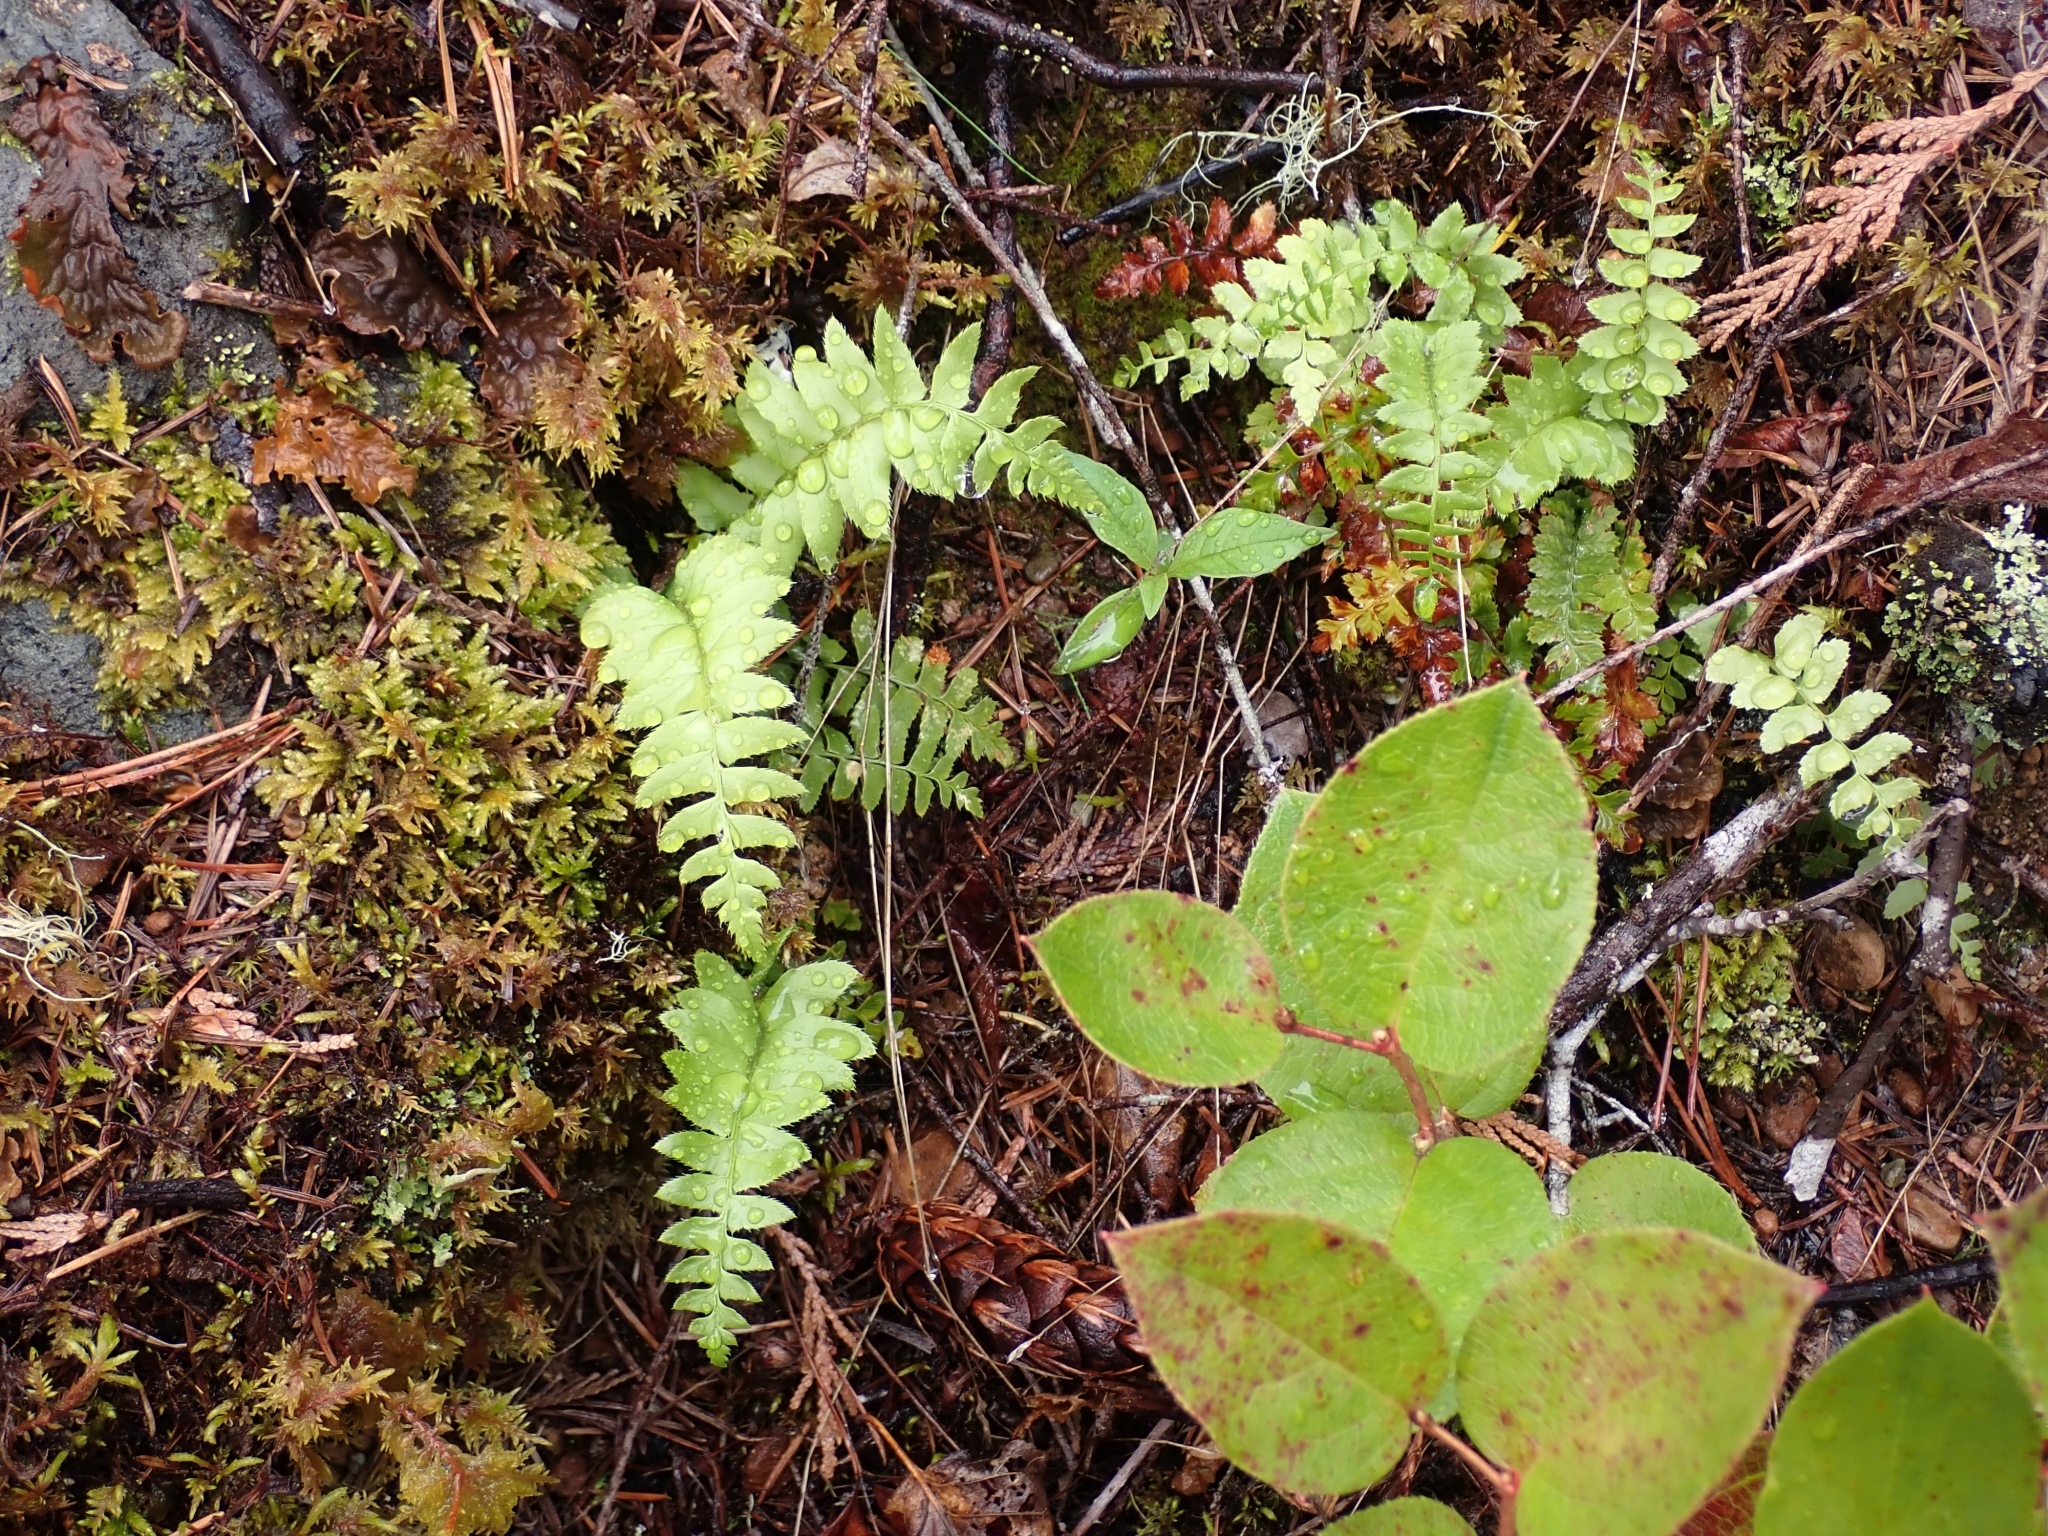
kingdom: Plantae
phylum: Tracheophyta
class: Polypodiopsida
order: Polypodiales
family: Dryopteridaceae
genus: Polystichum
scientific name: Polystichum munitum
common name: Western sword-fern
